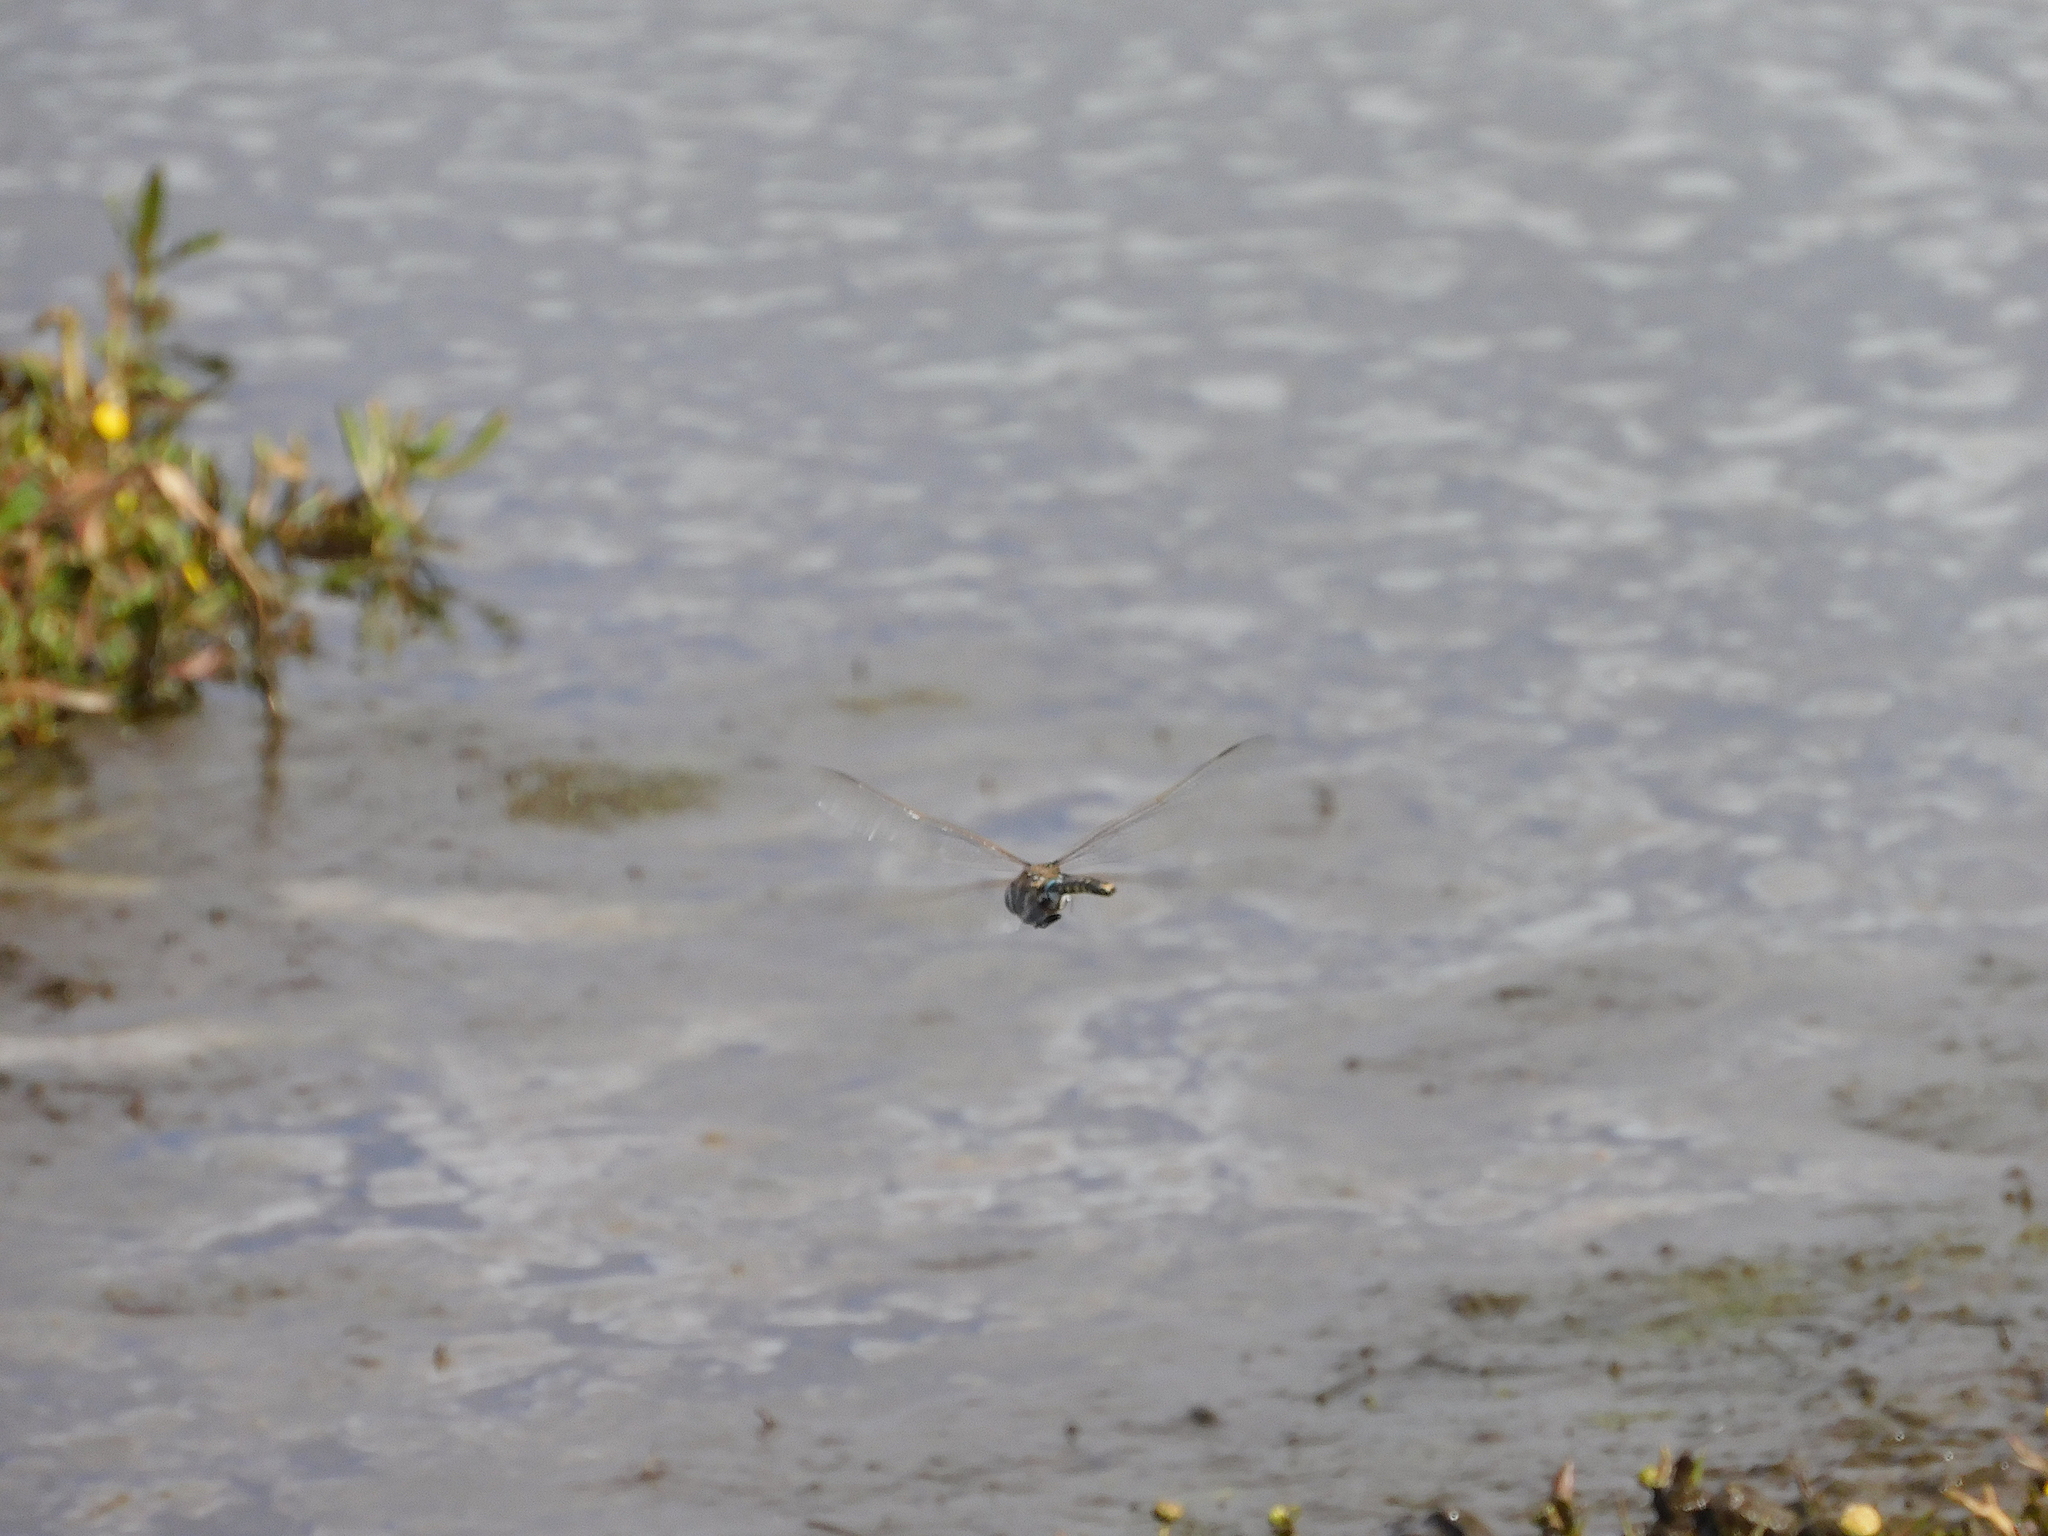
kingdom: Animalia
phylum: Arthropoda
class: Insecta
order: Odonata
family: Aeshnidae
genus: Aeshna
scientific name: Aeshna brevistyla
